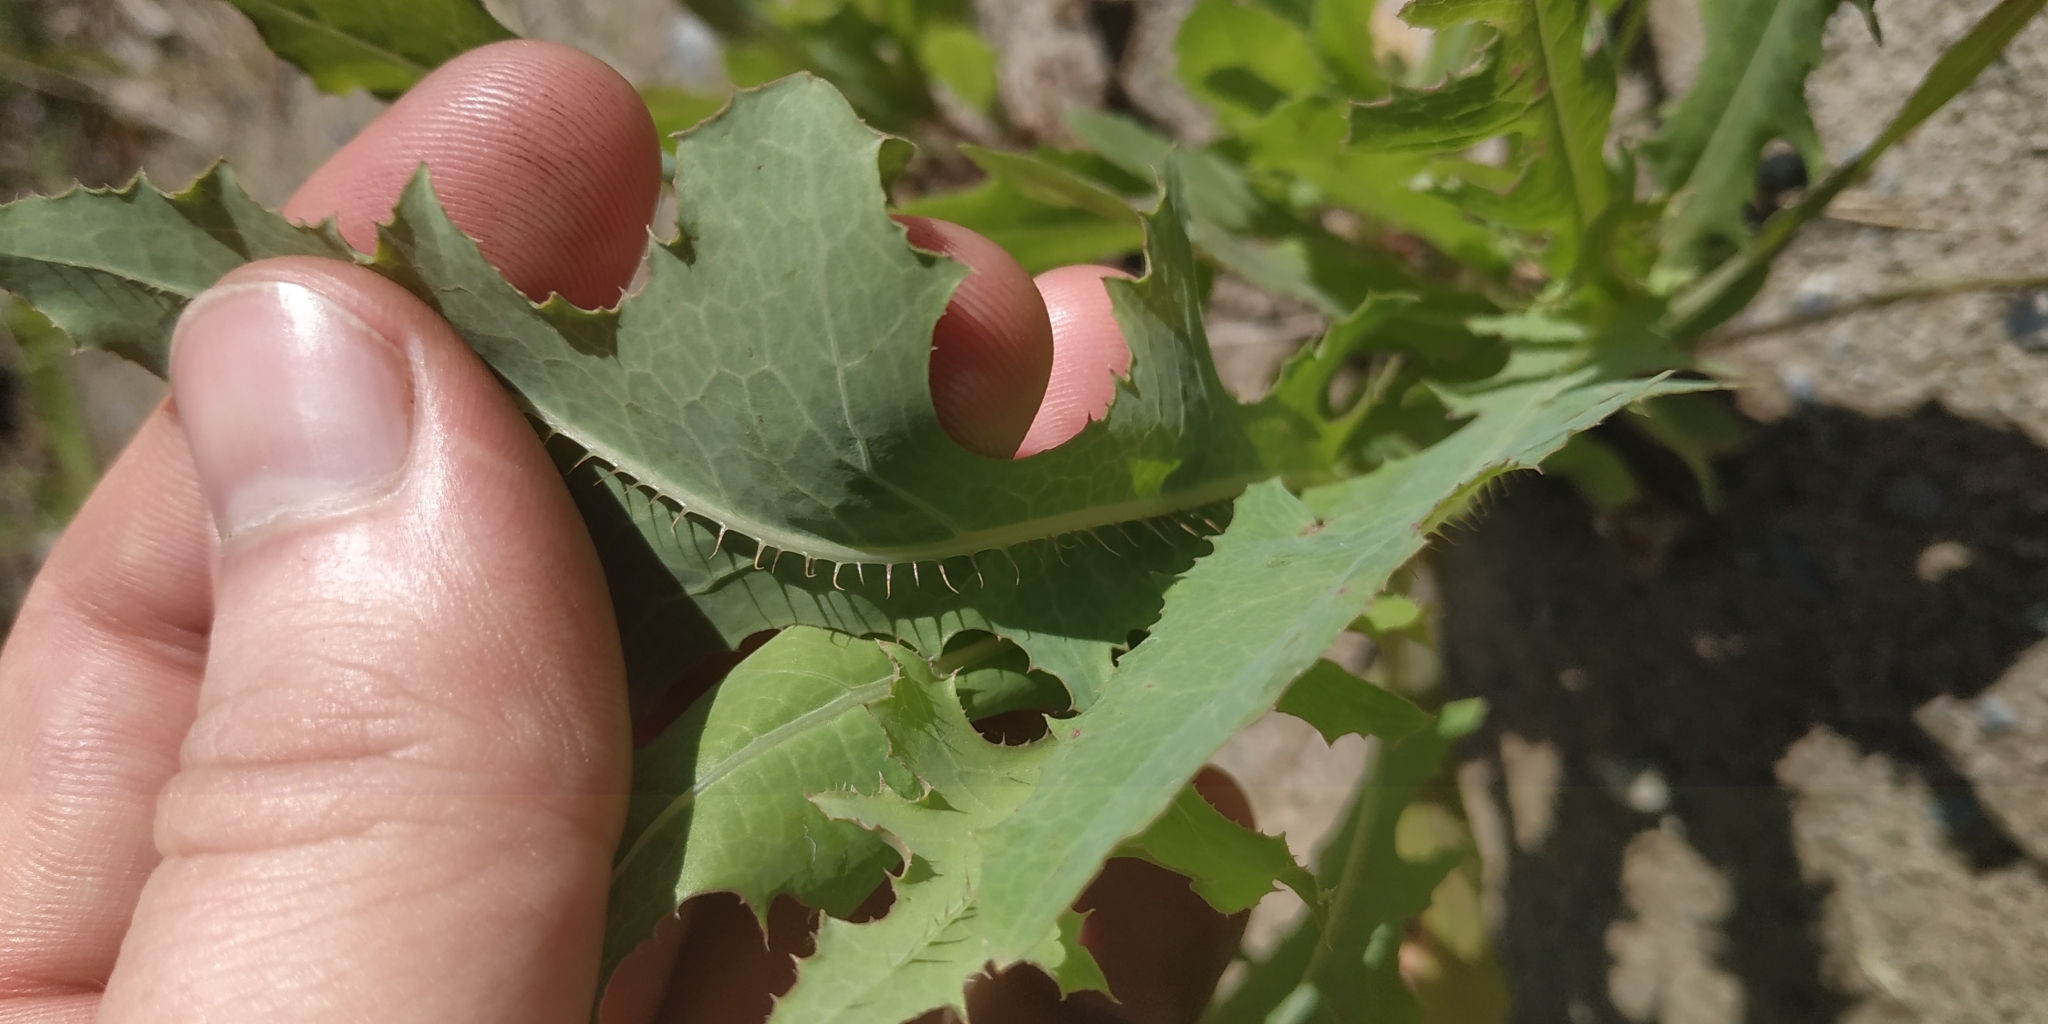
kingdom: Plantae
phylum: Tracheophyta
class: Magnoliopsida
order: Asterales
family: Asteraceae
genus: Lactuca
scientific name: Lactuca serriola
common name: Prickly lettuce
